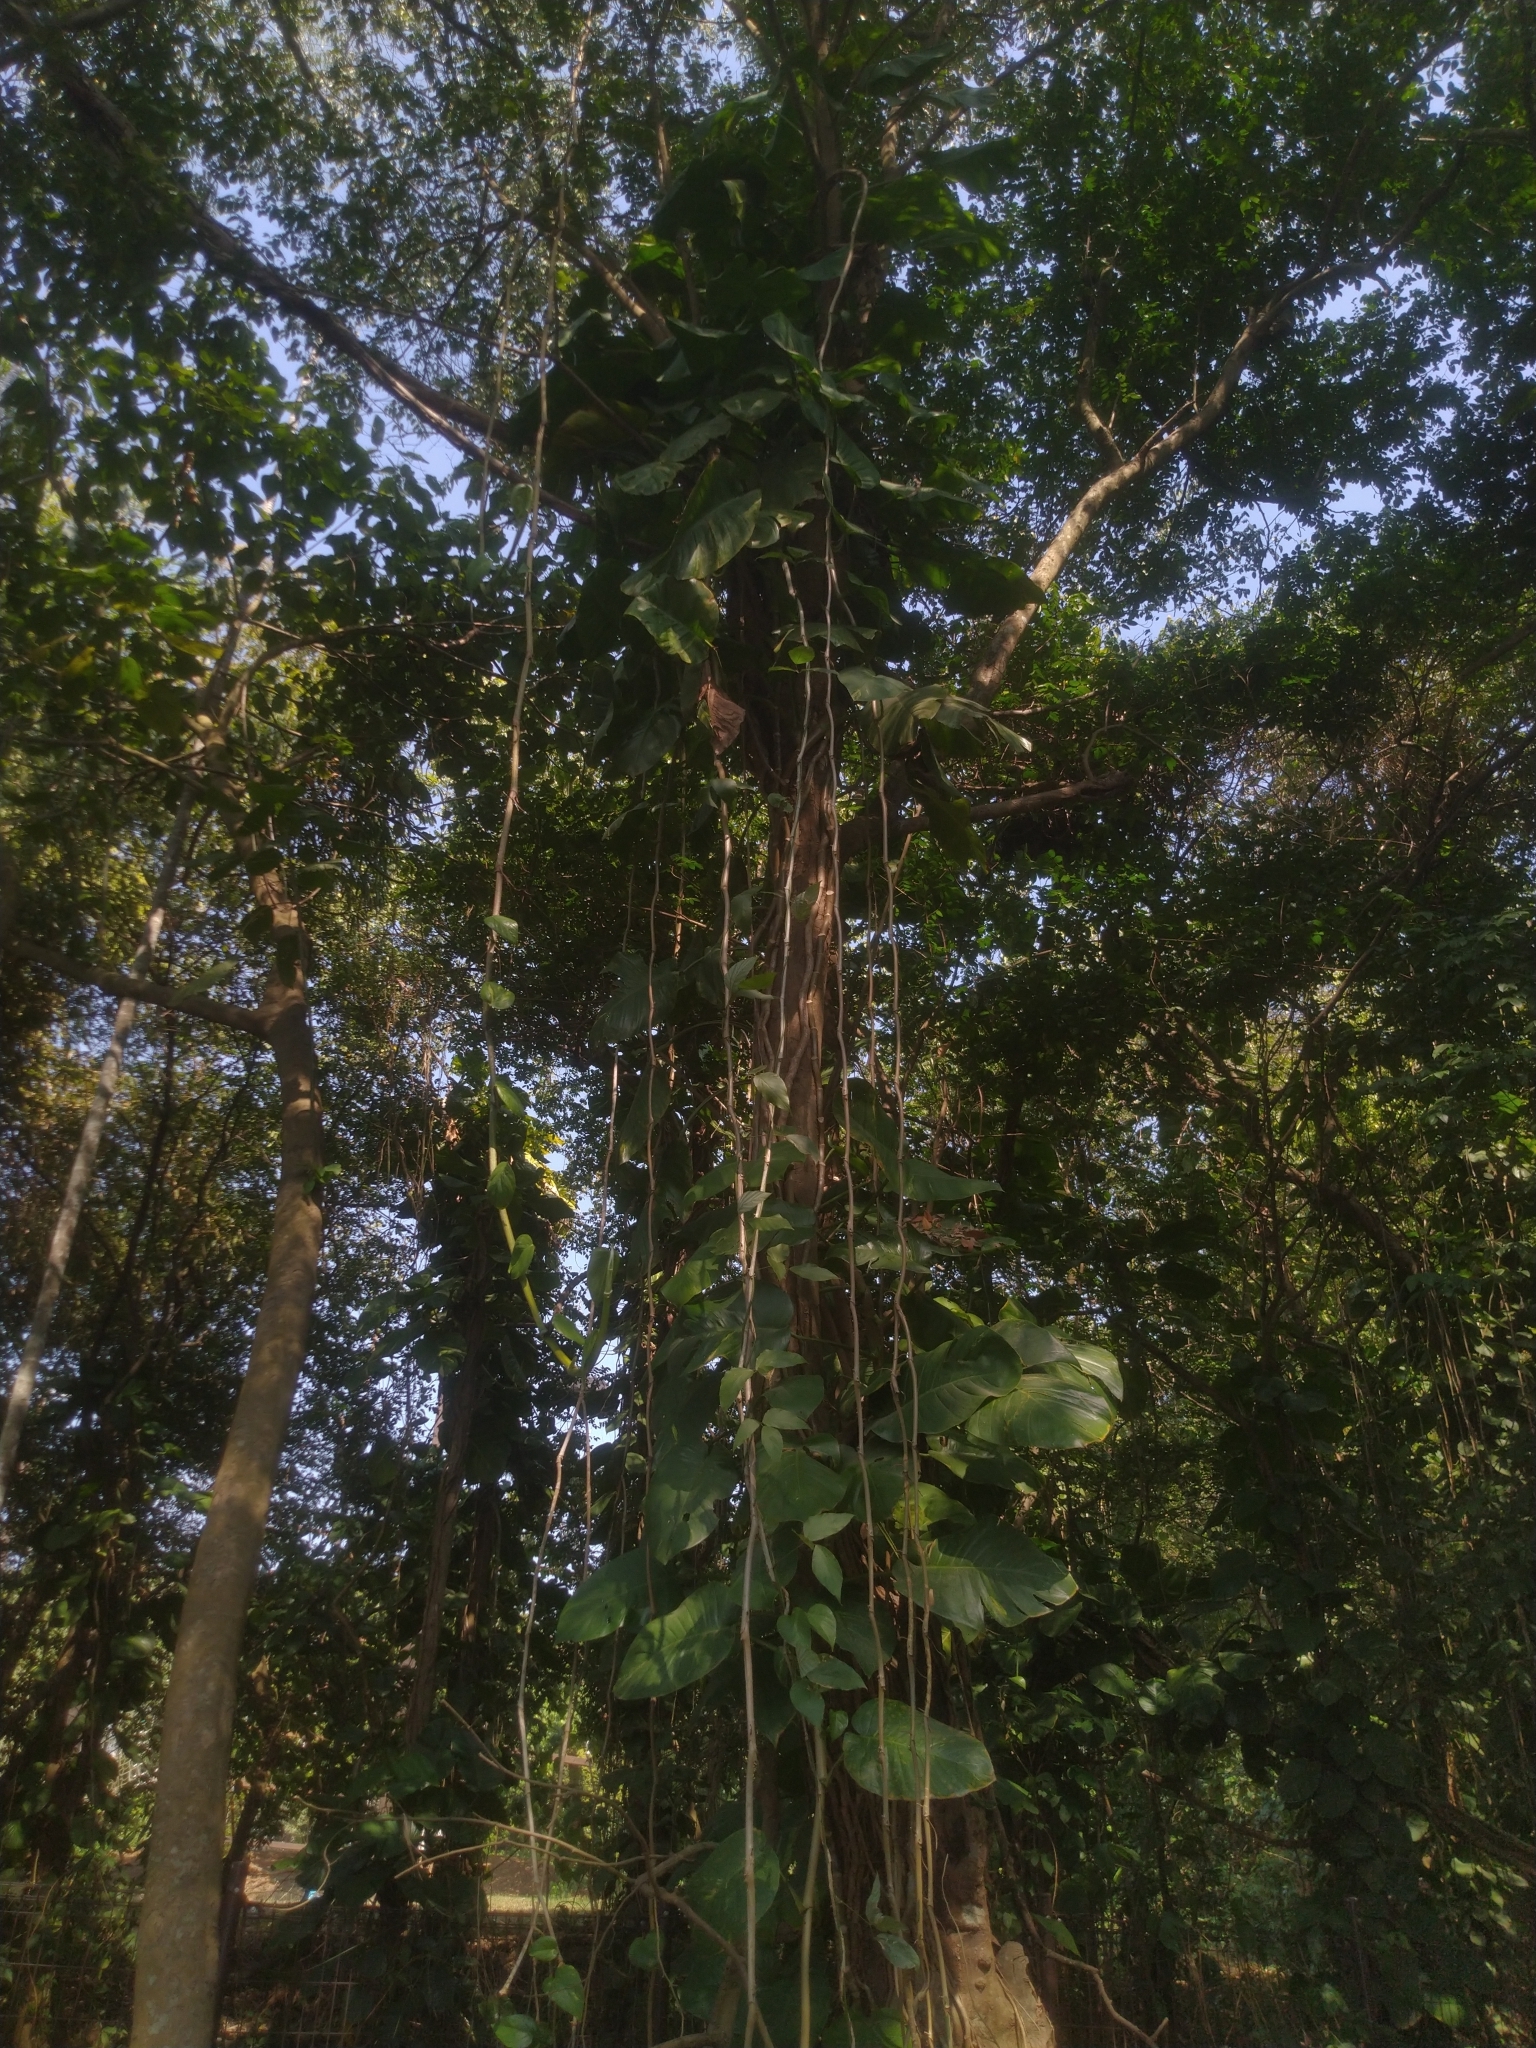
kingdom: Plantae
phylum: Tracheophyta
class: Liliopsida
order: Alismatales
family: Araceae
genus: Epipremnum
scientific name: Epipremnum aureum
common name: Golden hunter's-robe
